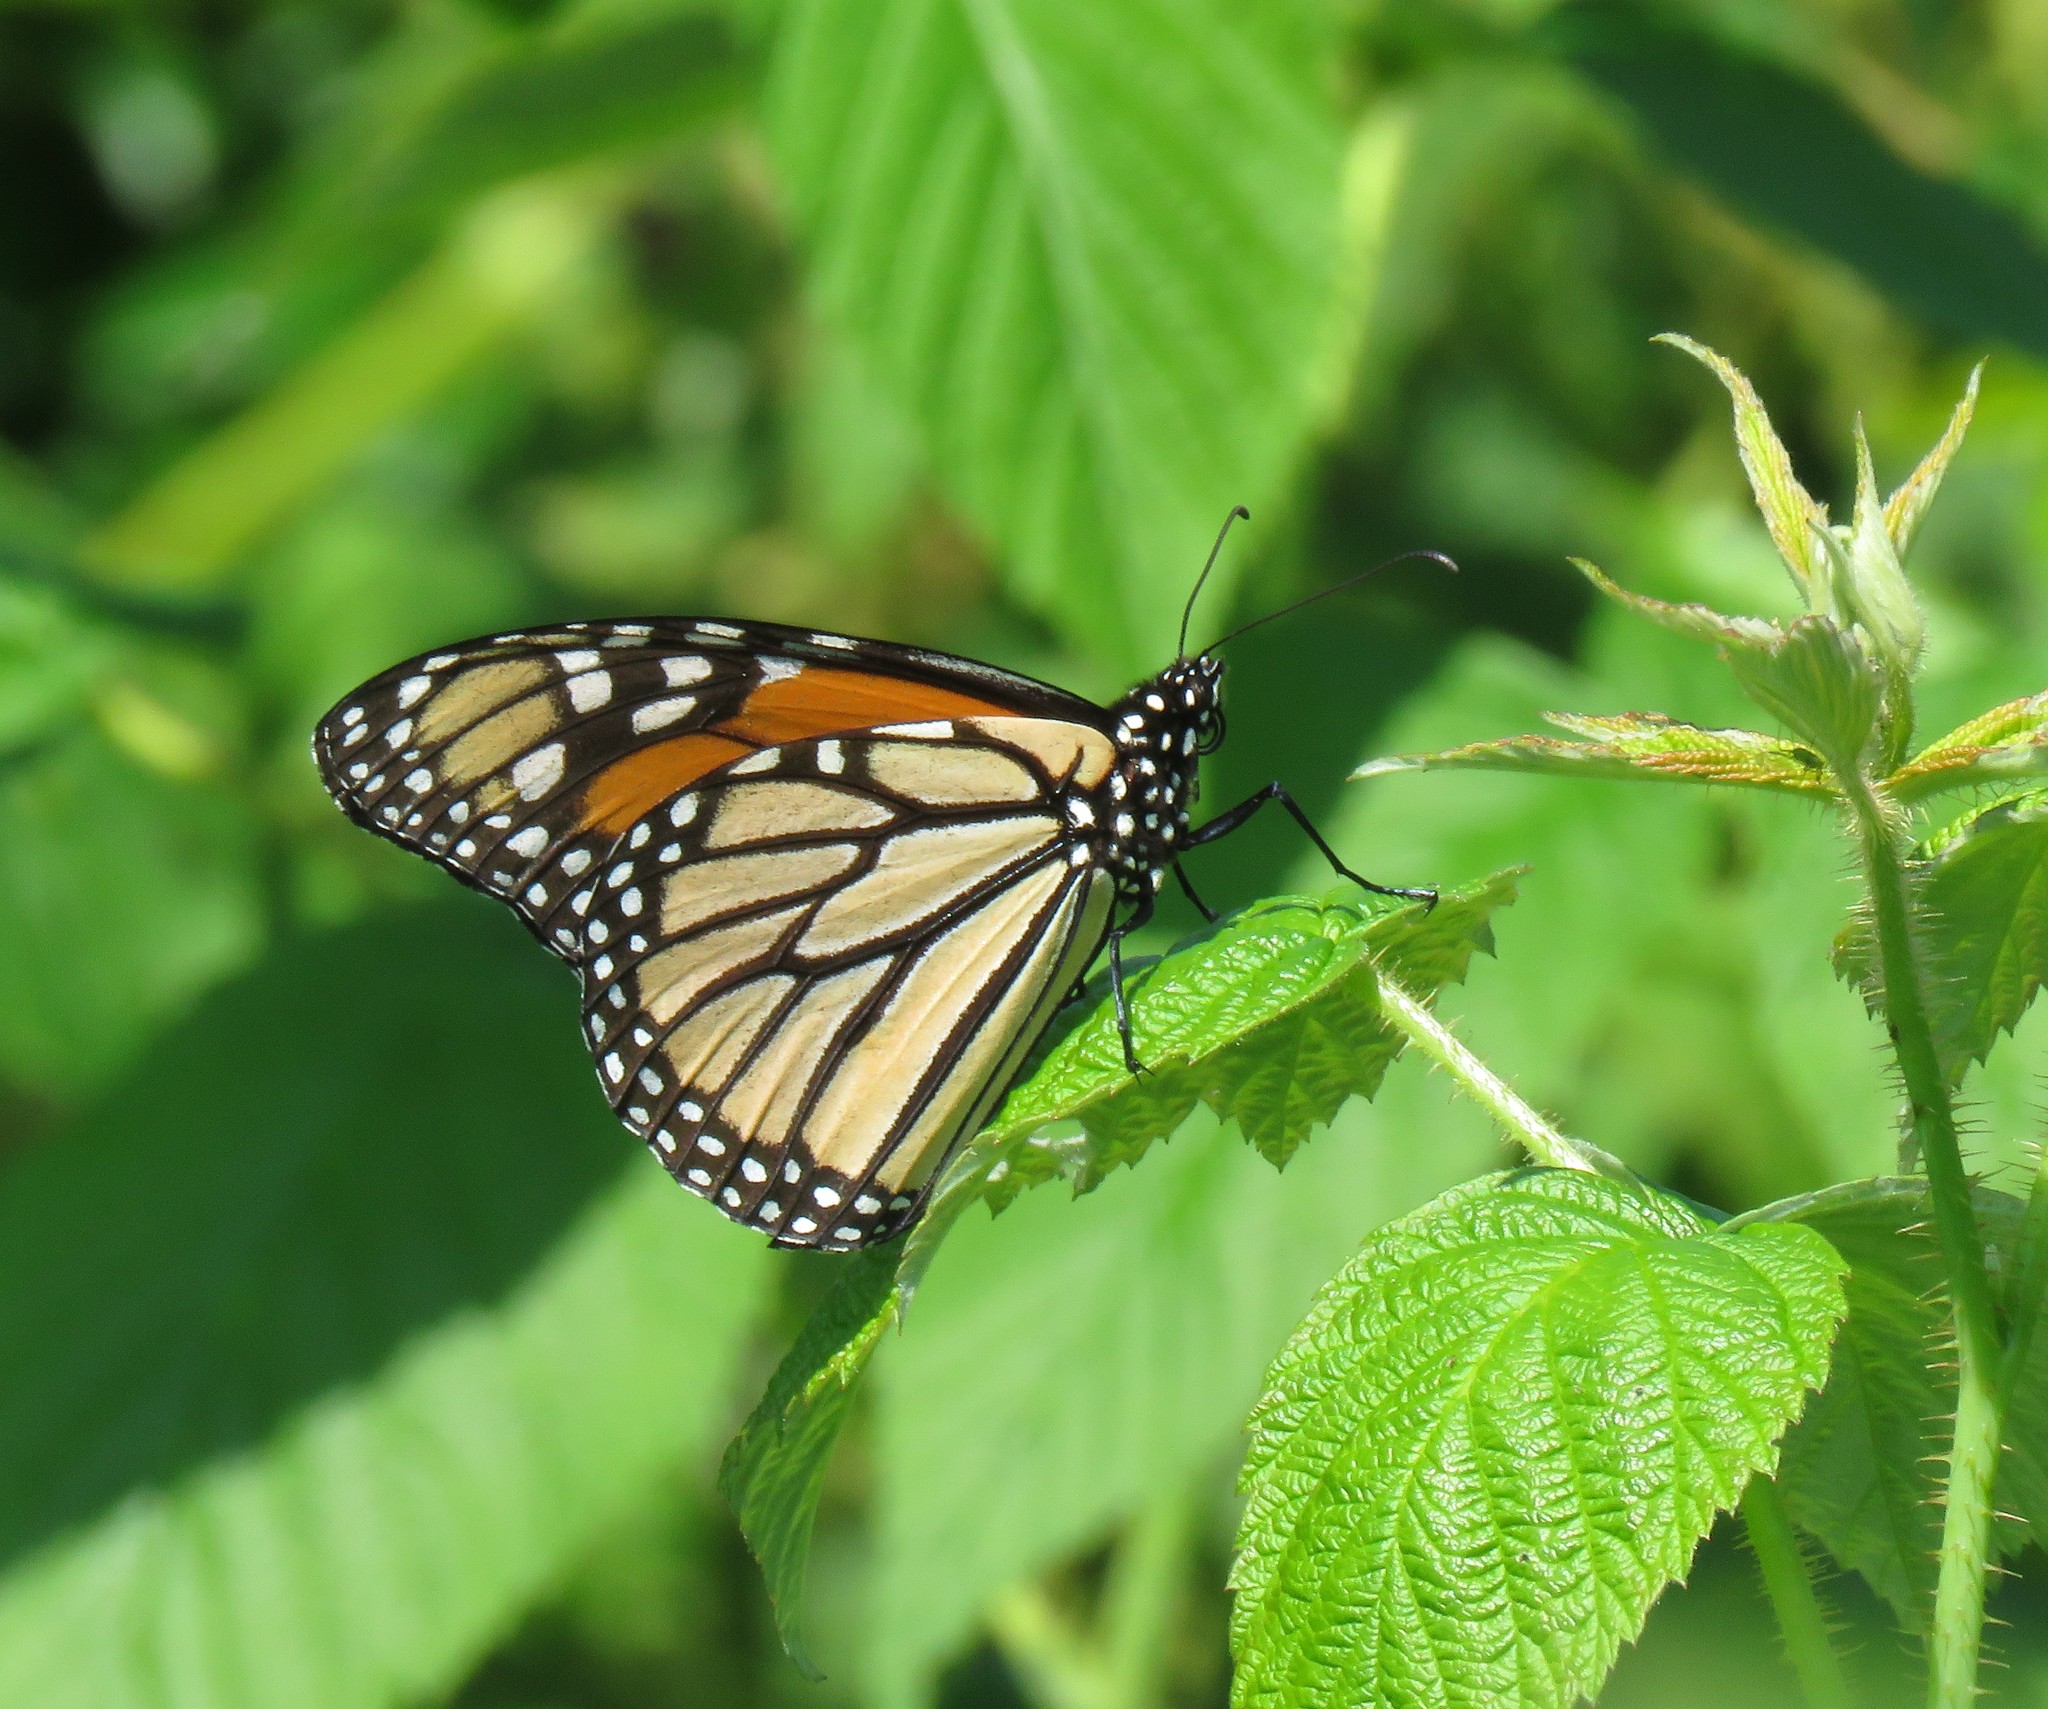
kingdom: Animalia
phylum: Arthropoda
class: Insecta
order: Lepidoptera
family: Nymphalidae
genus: Danaus
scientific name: Danaus plexippus
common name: Monarch
